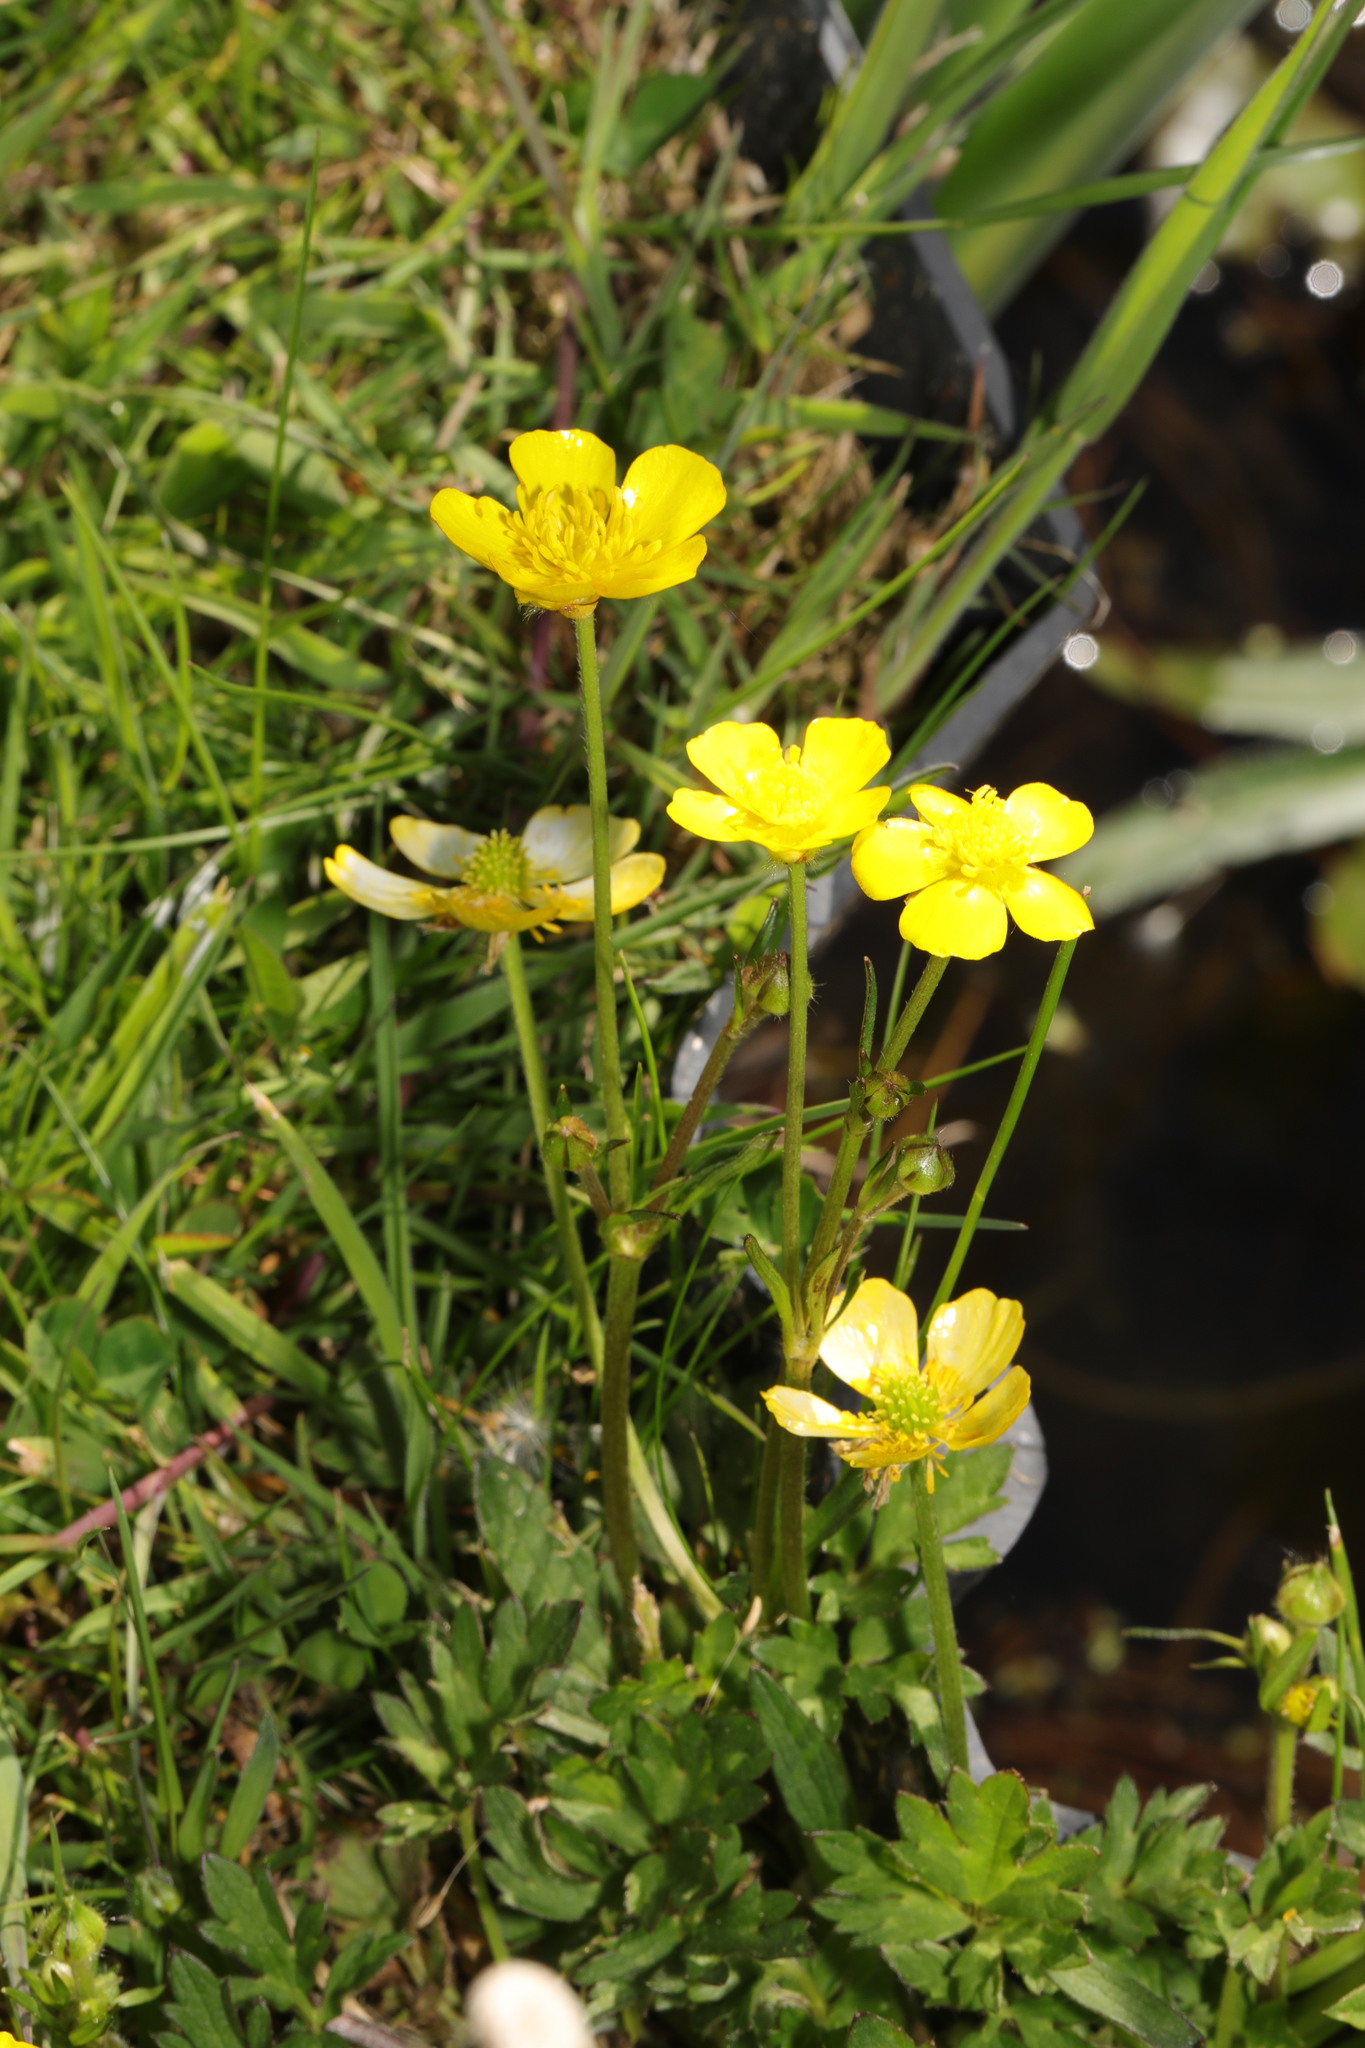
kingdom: Plantae
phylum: Tracheophyta
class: Magnoliopsida
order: Ranunculales
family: Ranunculaceae
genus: Ranunculus
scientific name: Ranunculus repens
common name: Creeping buttercup
